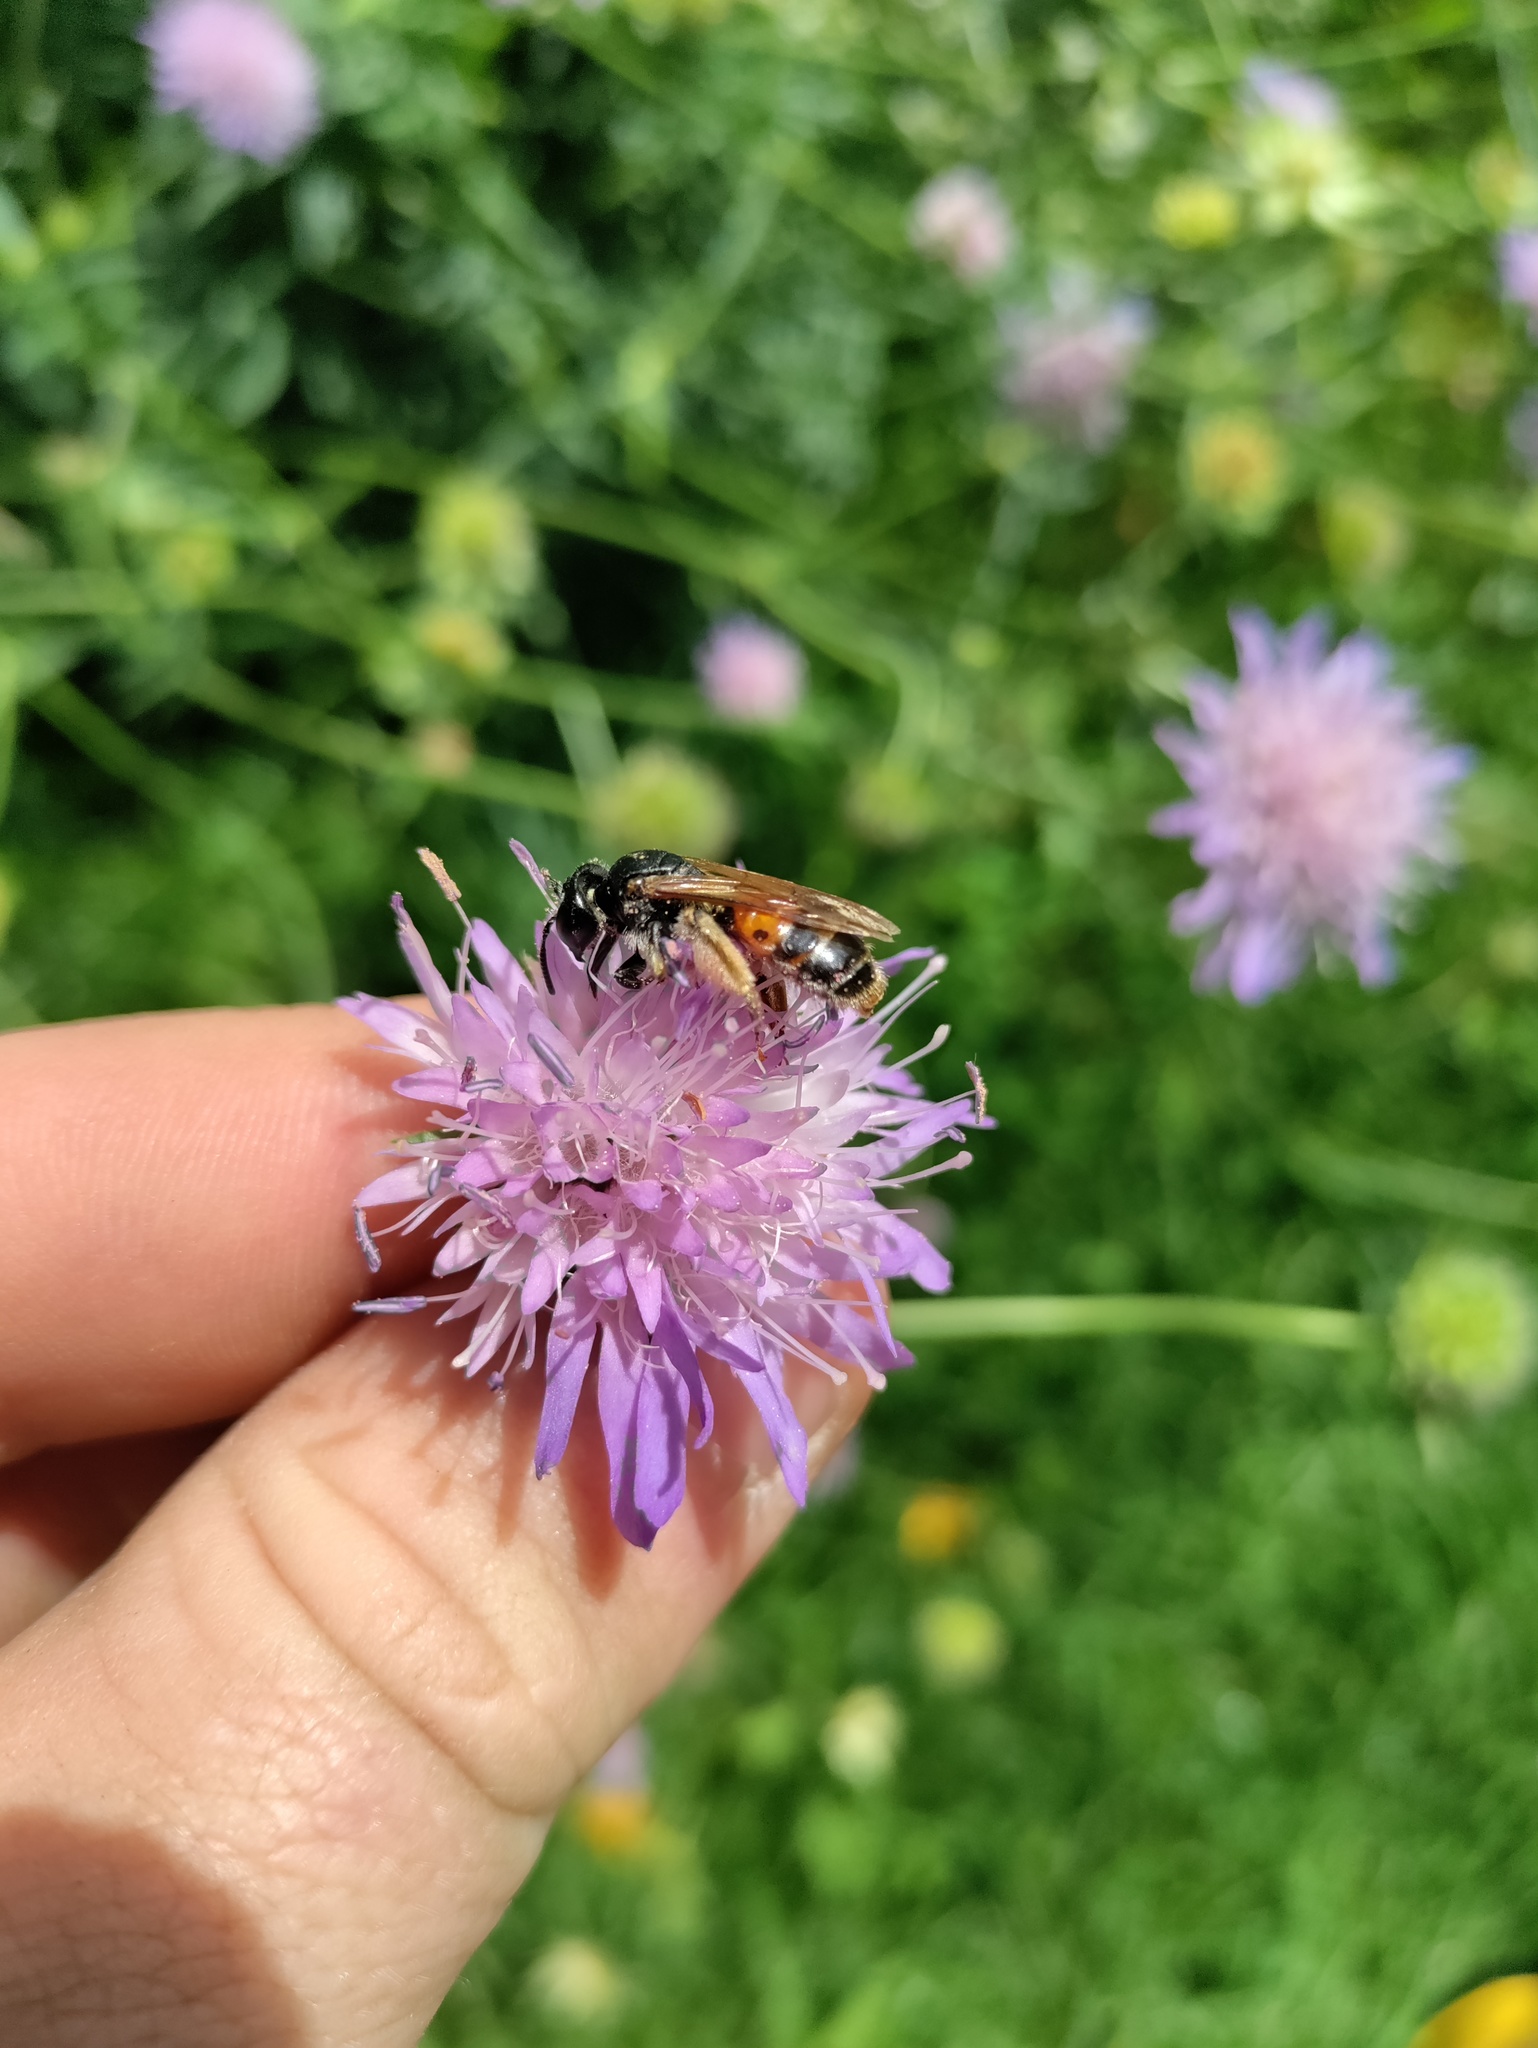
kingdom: Animalia
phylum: Arthropoda
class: Insecta
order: Hymenoptera
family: Andrenidae
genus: Andrena
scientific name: Andrena hattorfiana
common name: Large scabious mining bee
